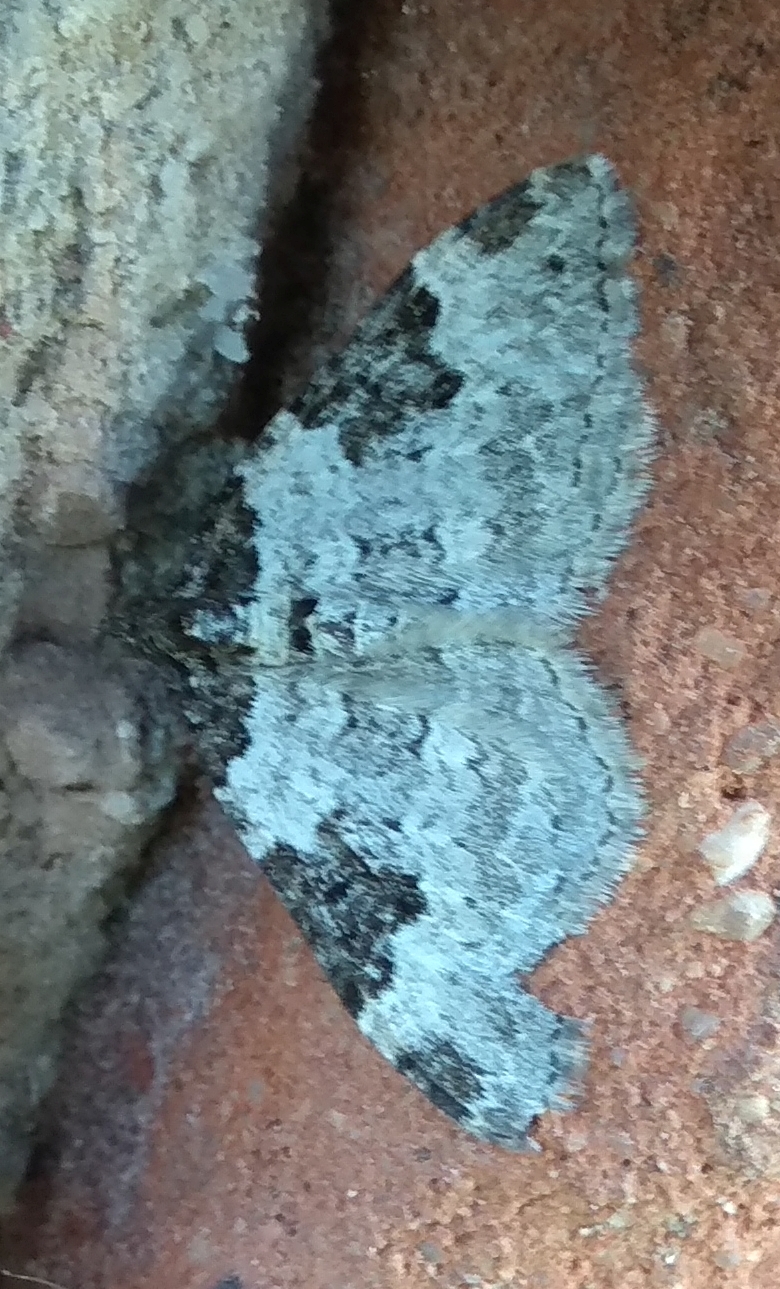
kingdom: Animalia
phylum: Arthropoda
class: Insecta
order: Lepidoptera
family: Geometridae
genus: Xanthorhoe
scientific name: Xanthorhoe fluctuata
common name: Garden carpet
